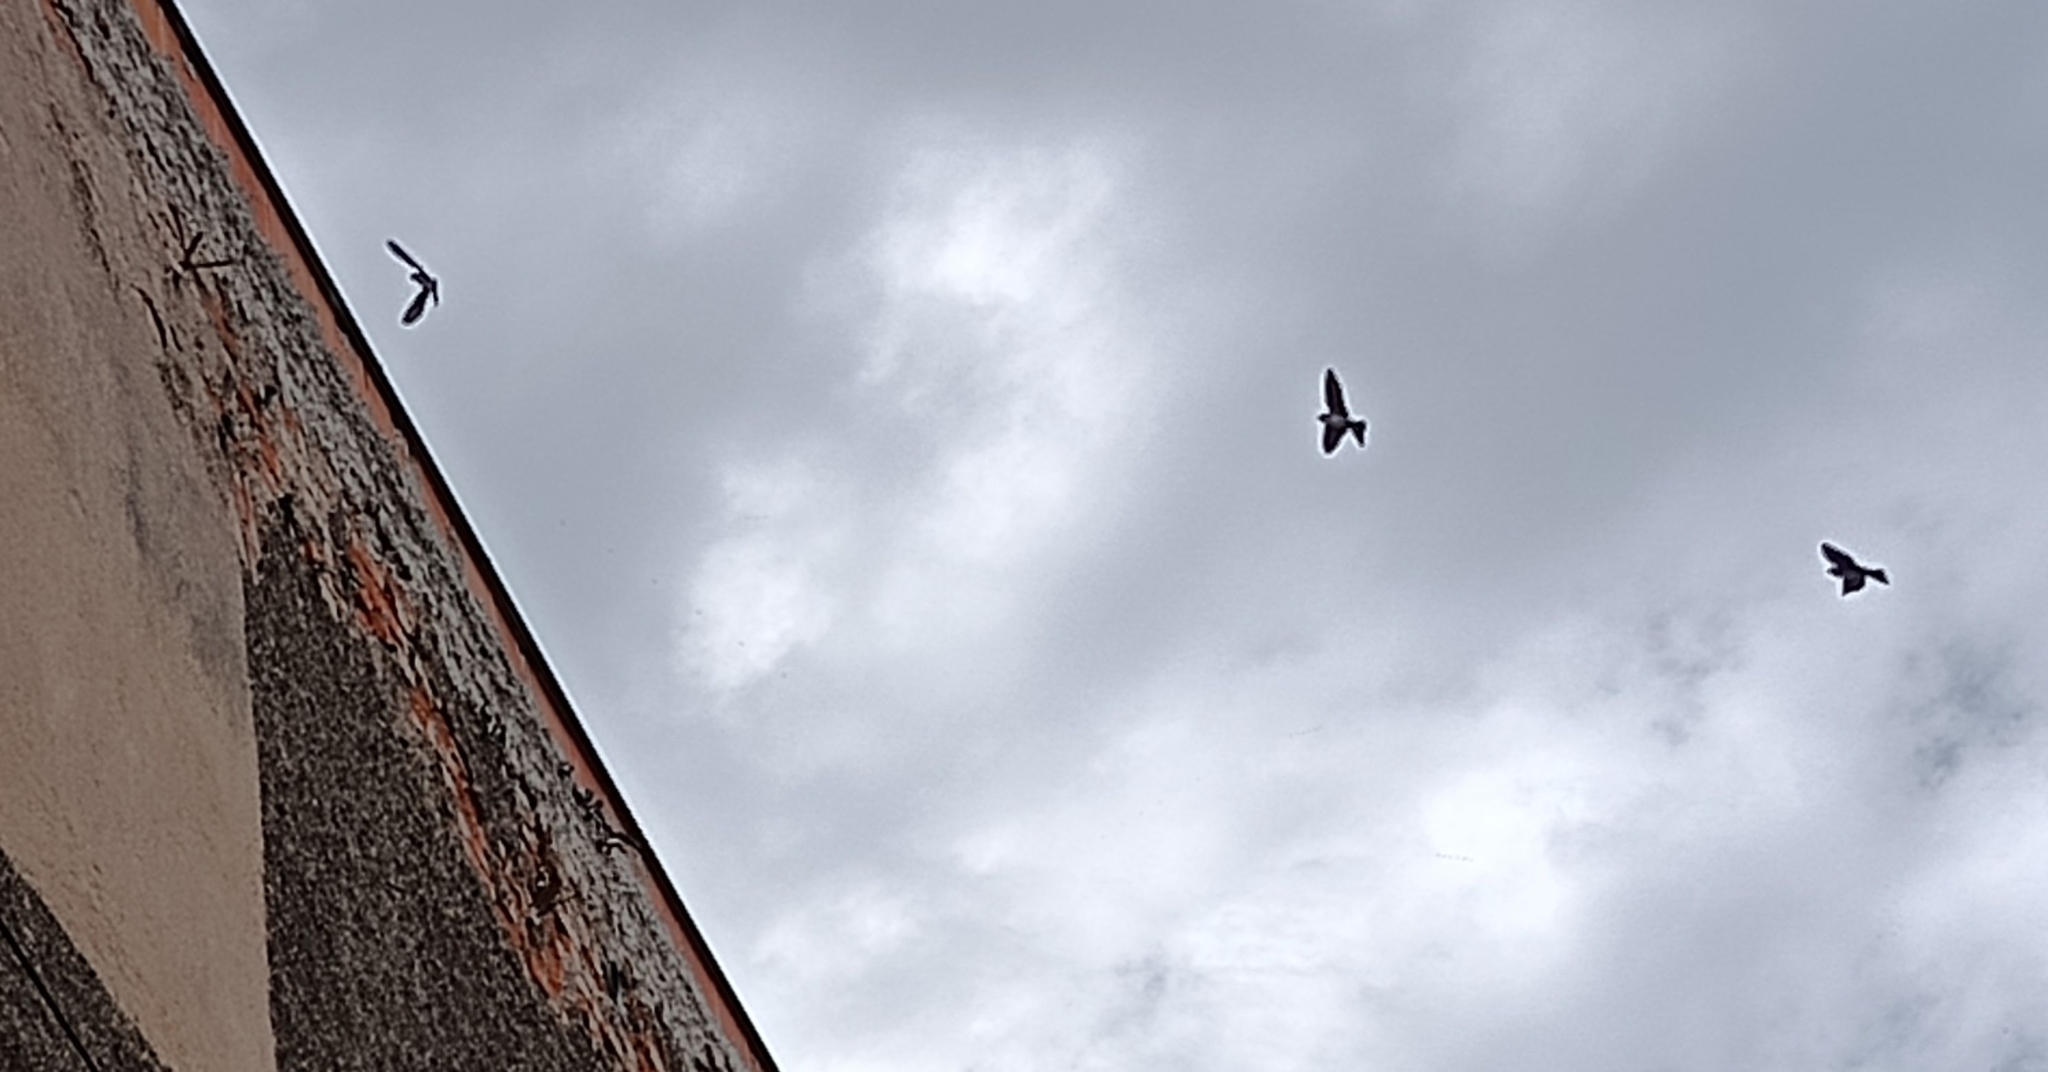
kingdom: Animalia
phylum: Chordata
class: Aves
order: Passeriformes
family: Hirundinidae
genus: Delichon
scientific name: Delichon urbicum
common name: Common house martin
